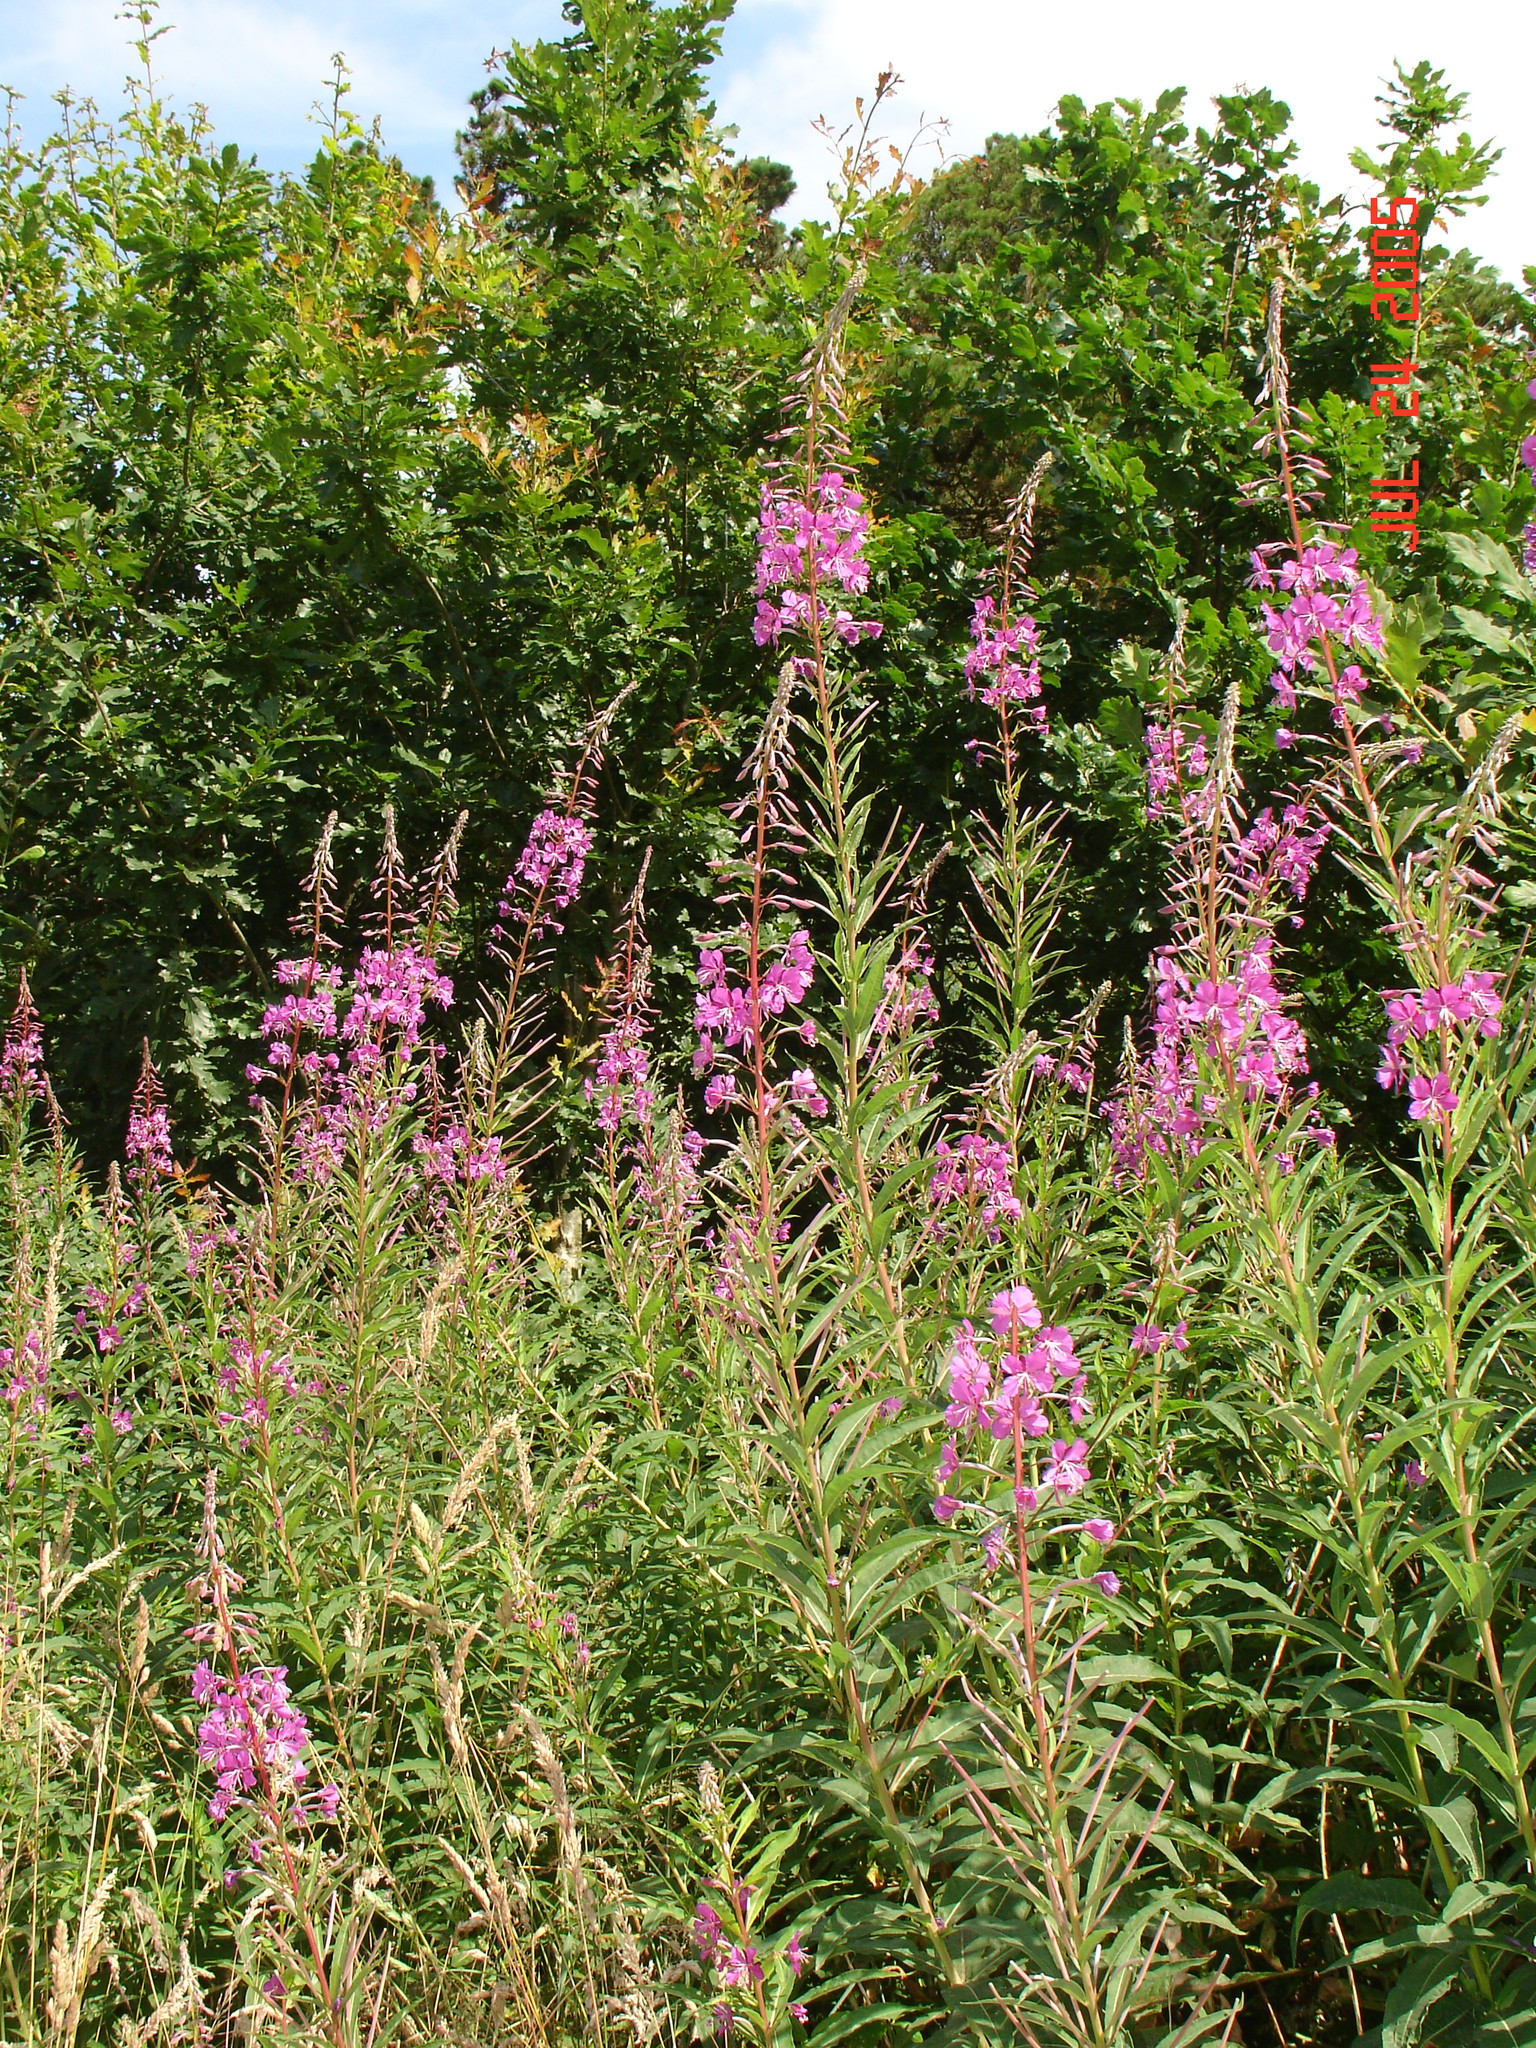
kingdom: Plantae
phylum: Tracheophyta
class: Magnoliopsida
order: Myrtales
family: Onagraceae
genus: Chamaenerion
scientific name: Chamaenerion angustifolium
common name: Fireweed
